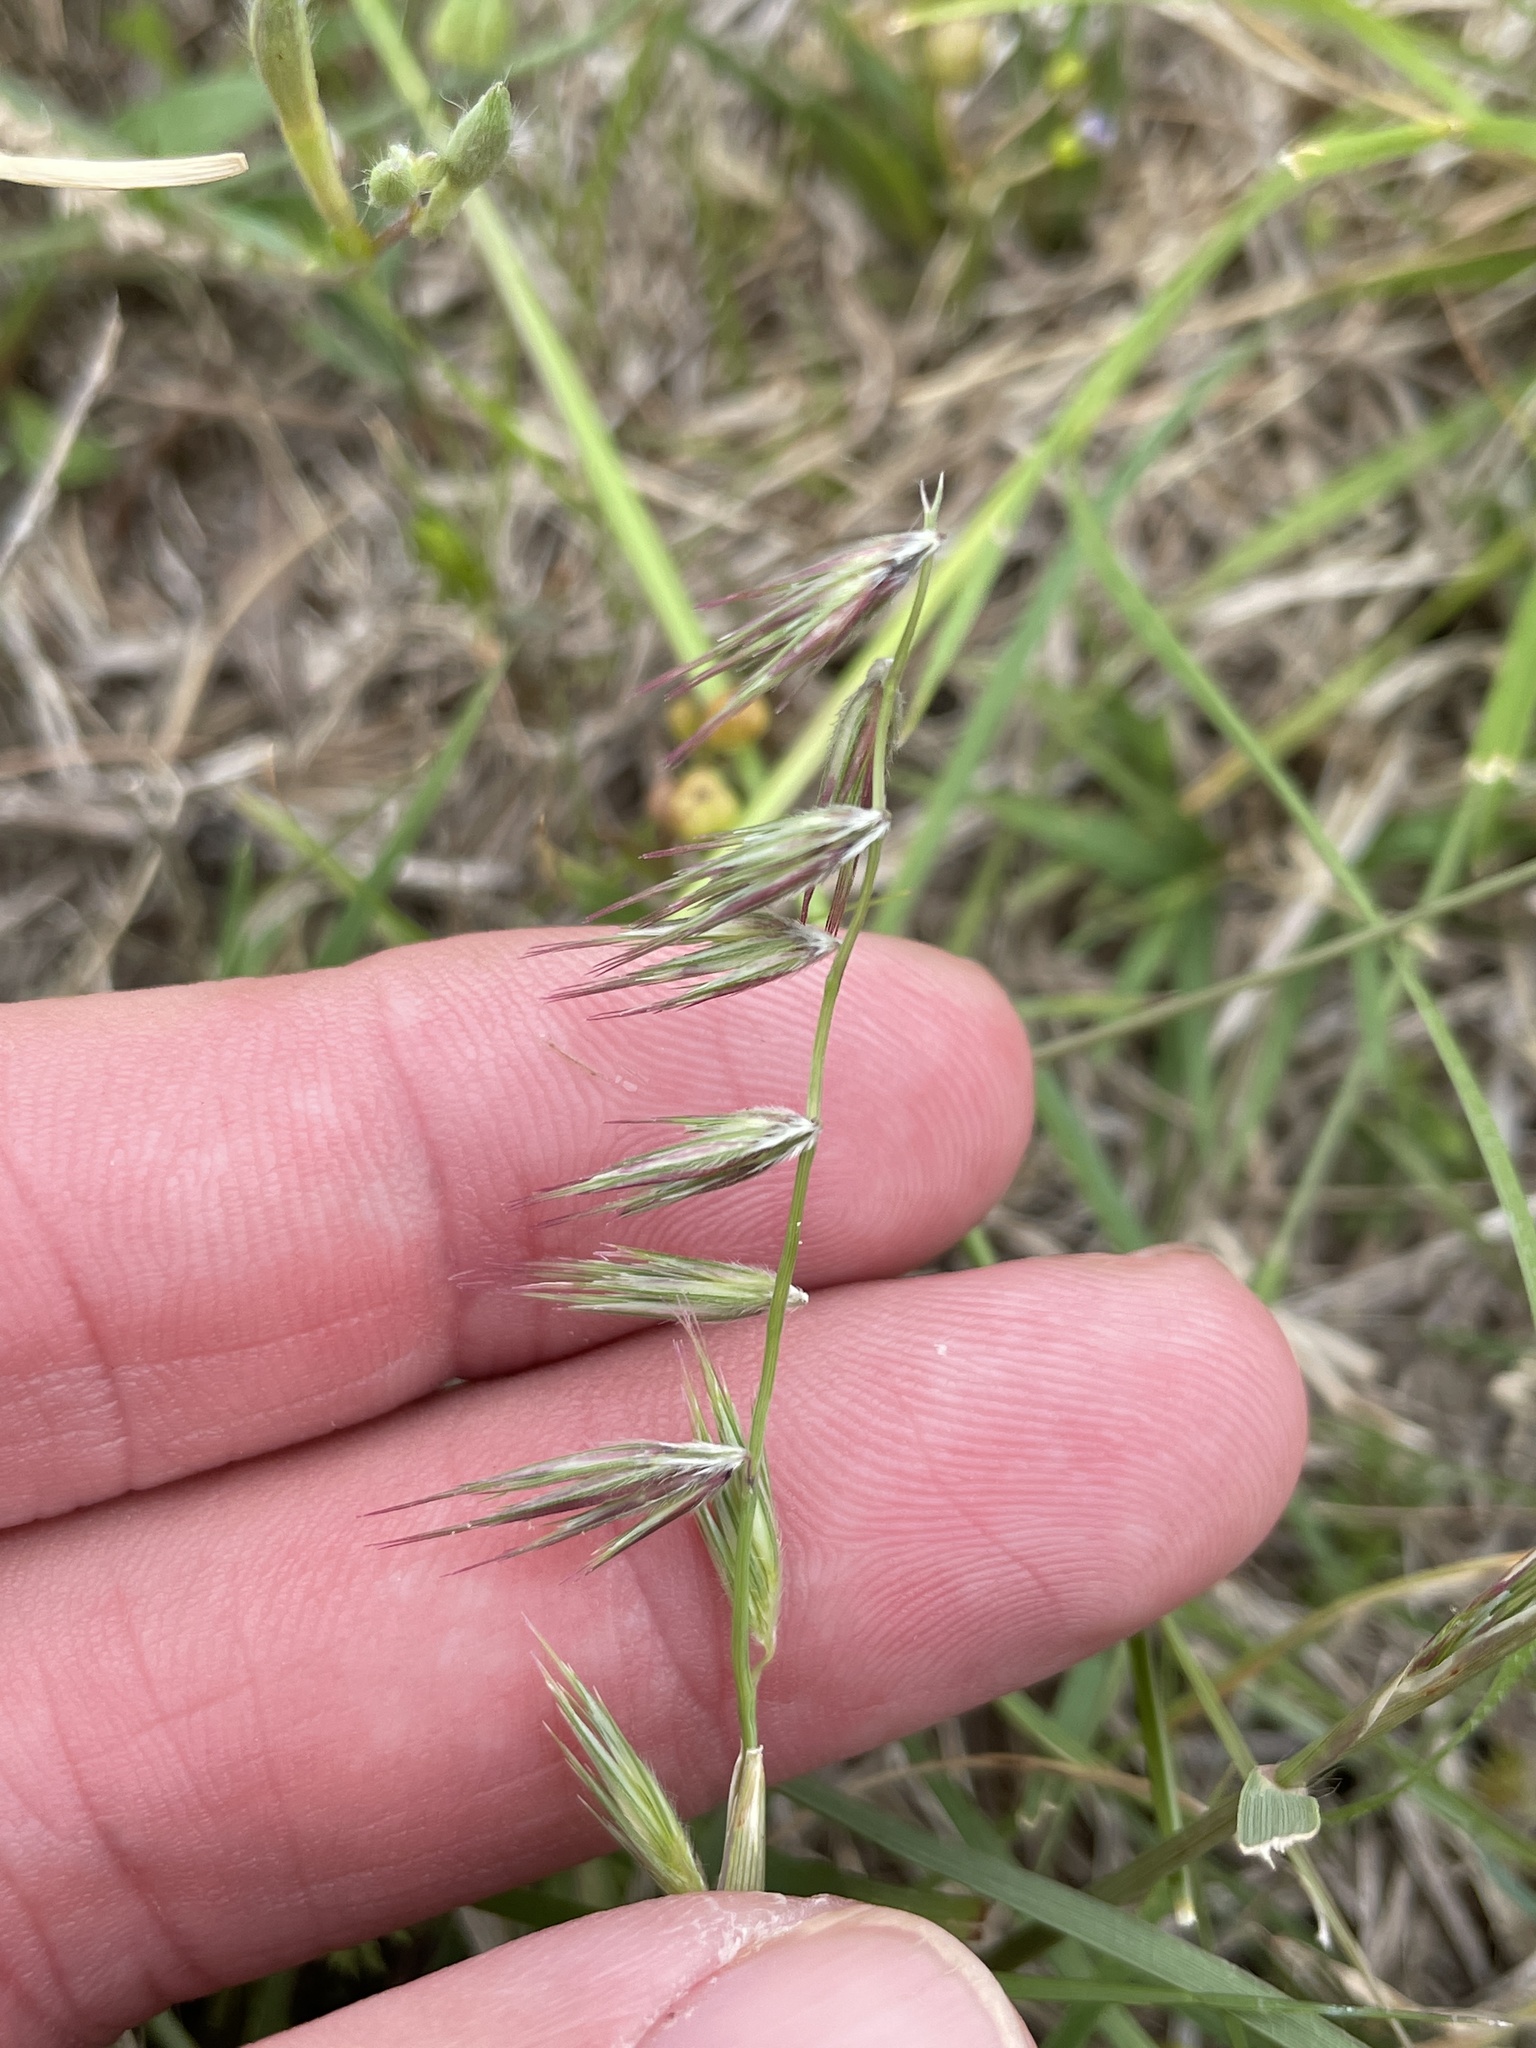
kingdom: Plantae
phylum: Tracheophyta
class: Liliopsida
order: Poales
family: Poaceae
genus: Bouteloua
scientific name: Bouteloua rigidiseta
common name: Texas grama
